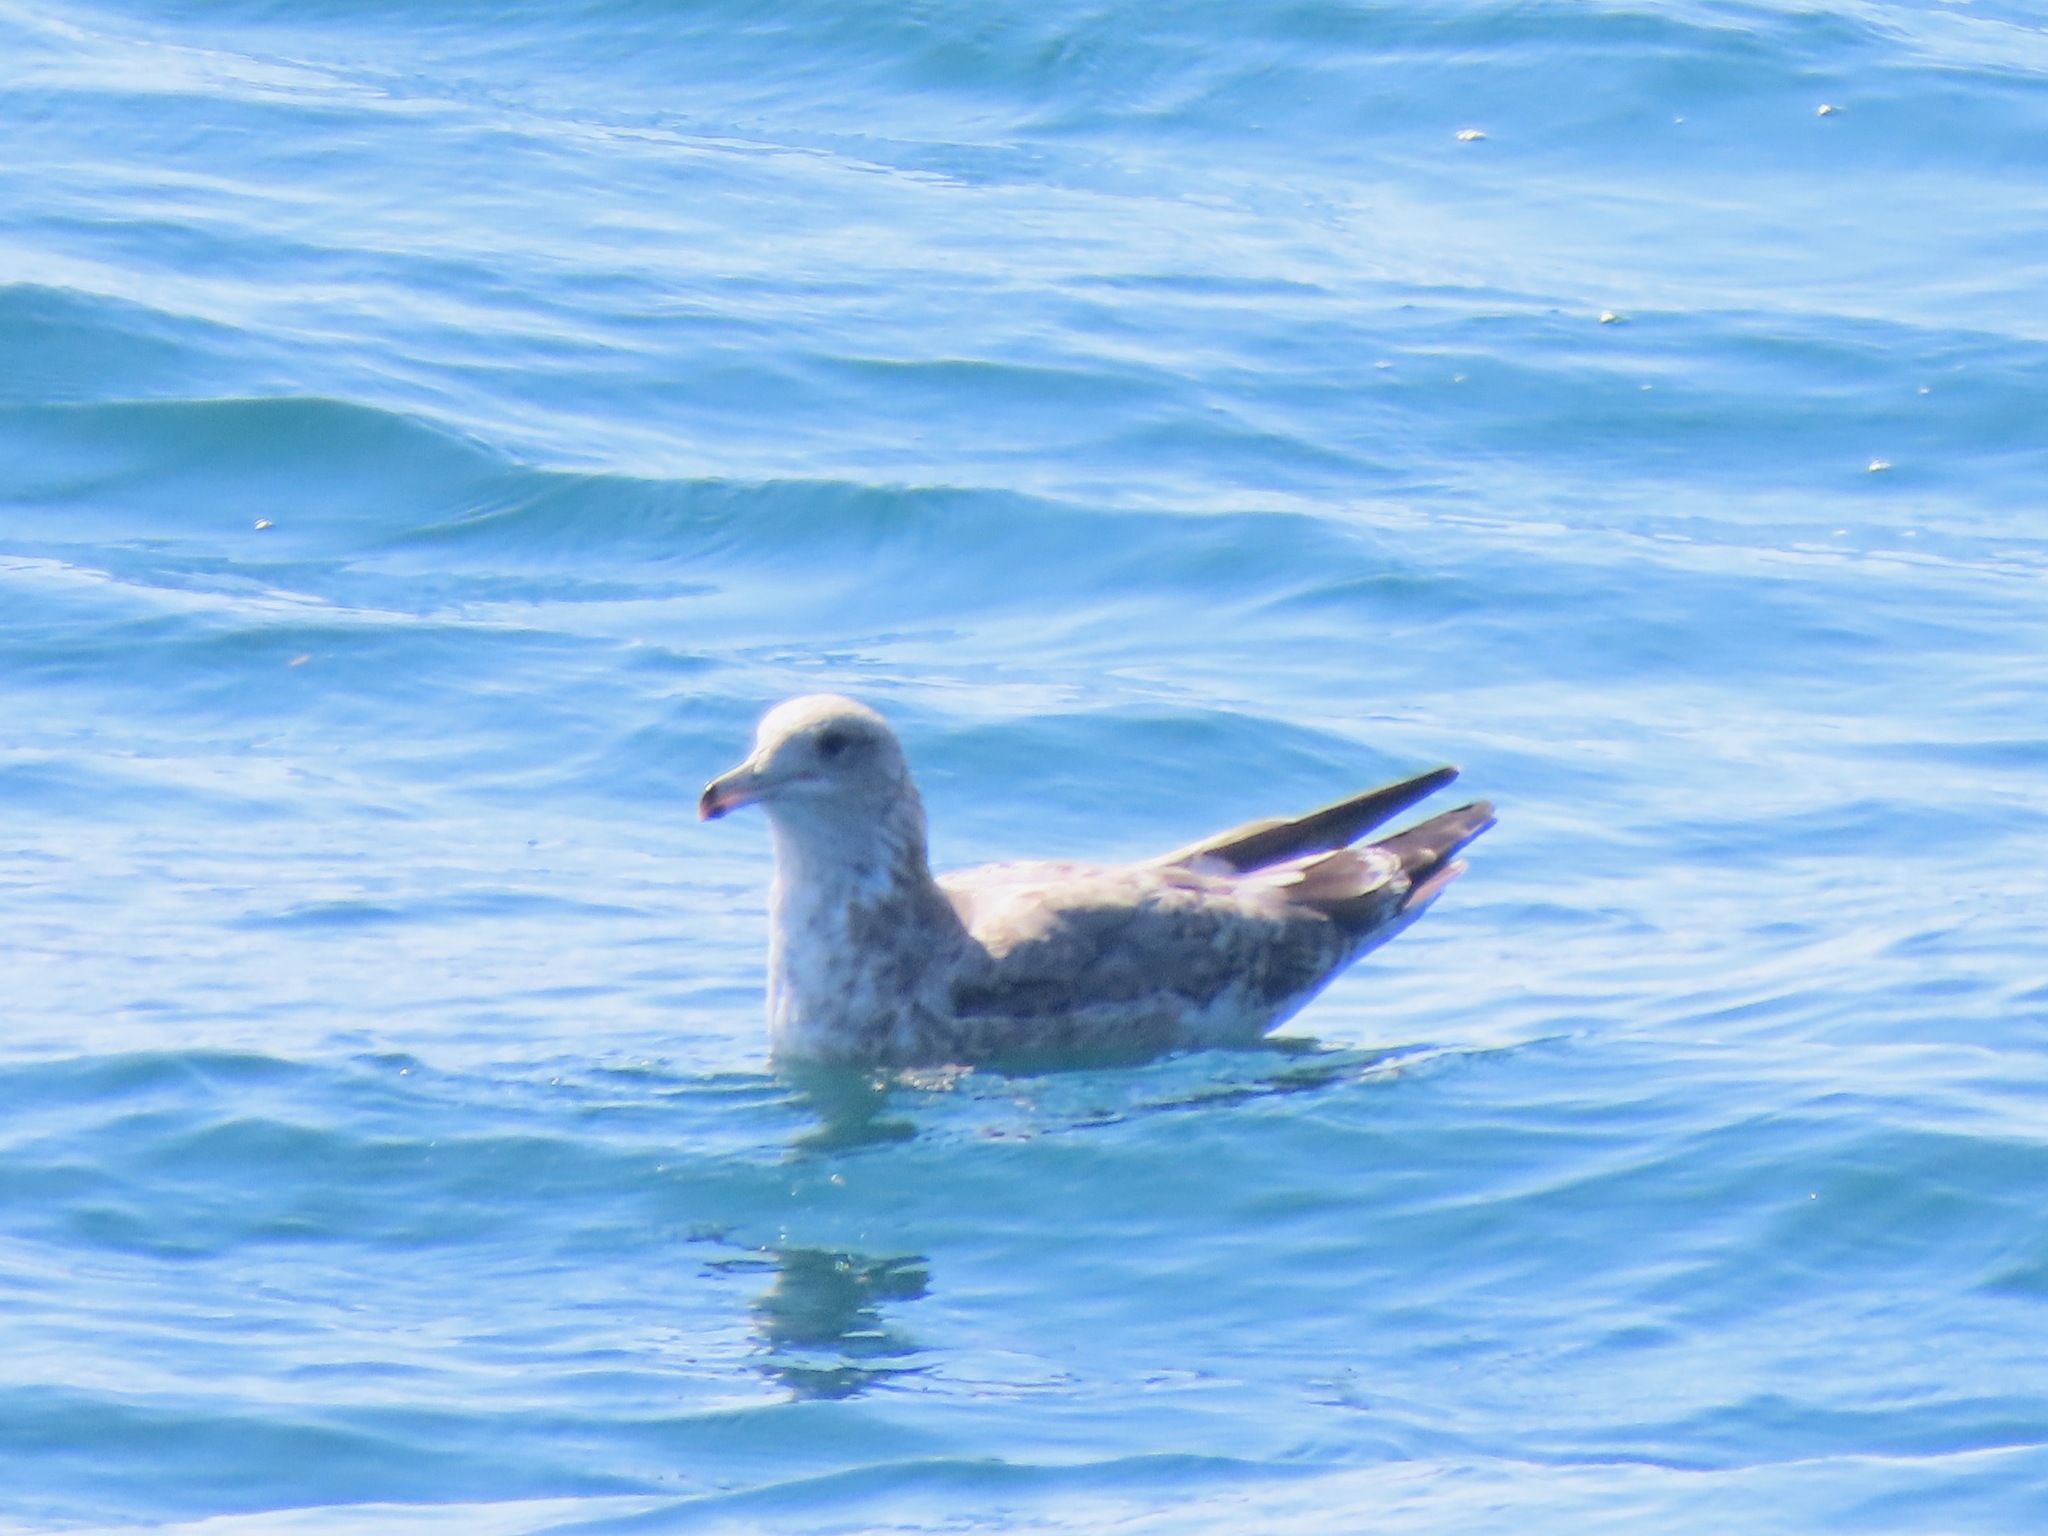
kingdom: Animalia
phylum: Chordata
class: Aves
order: Charadriiformes
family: Laridae
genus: Larus
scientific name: Larus californicus
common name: California gull
